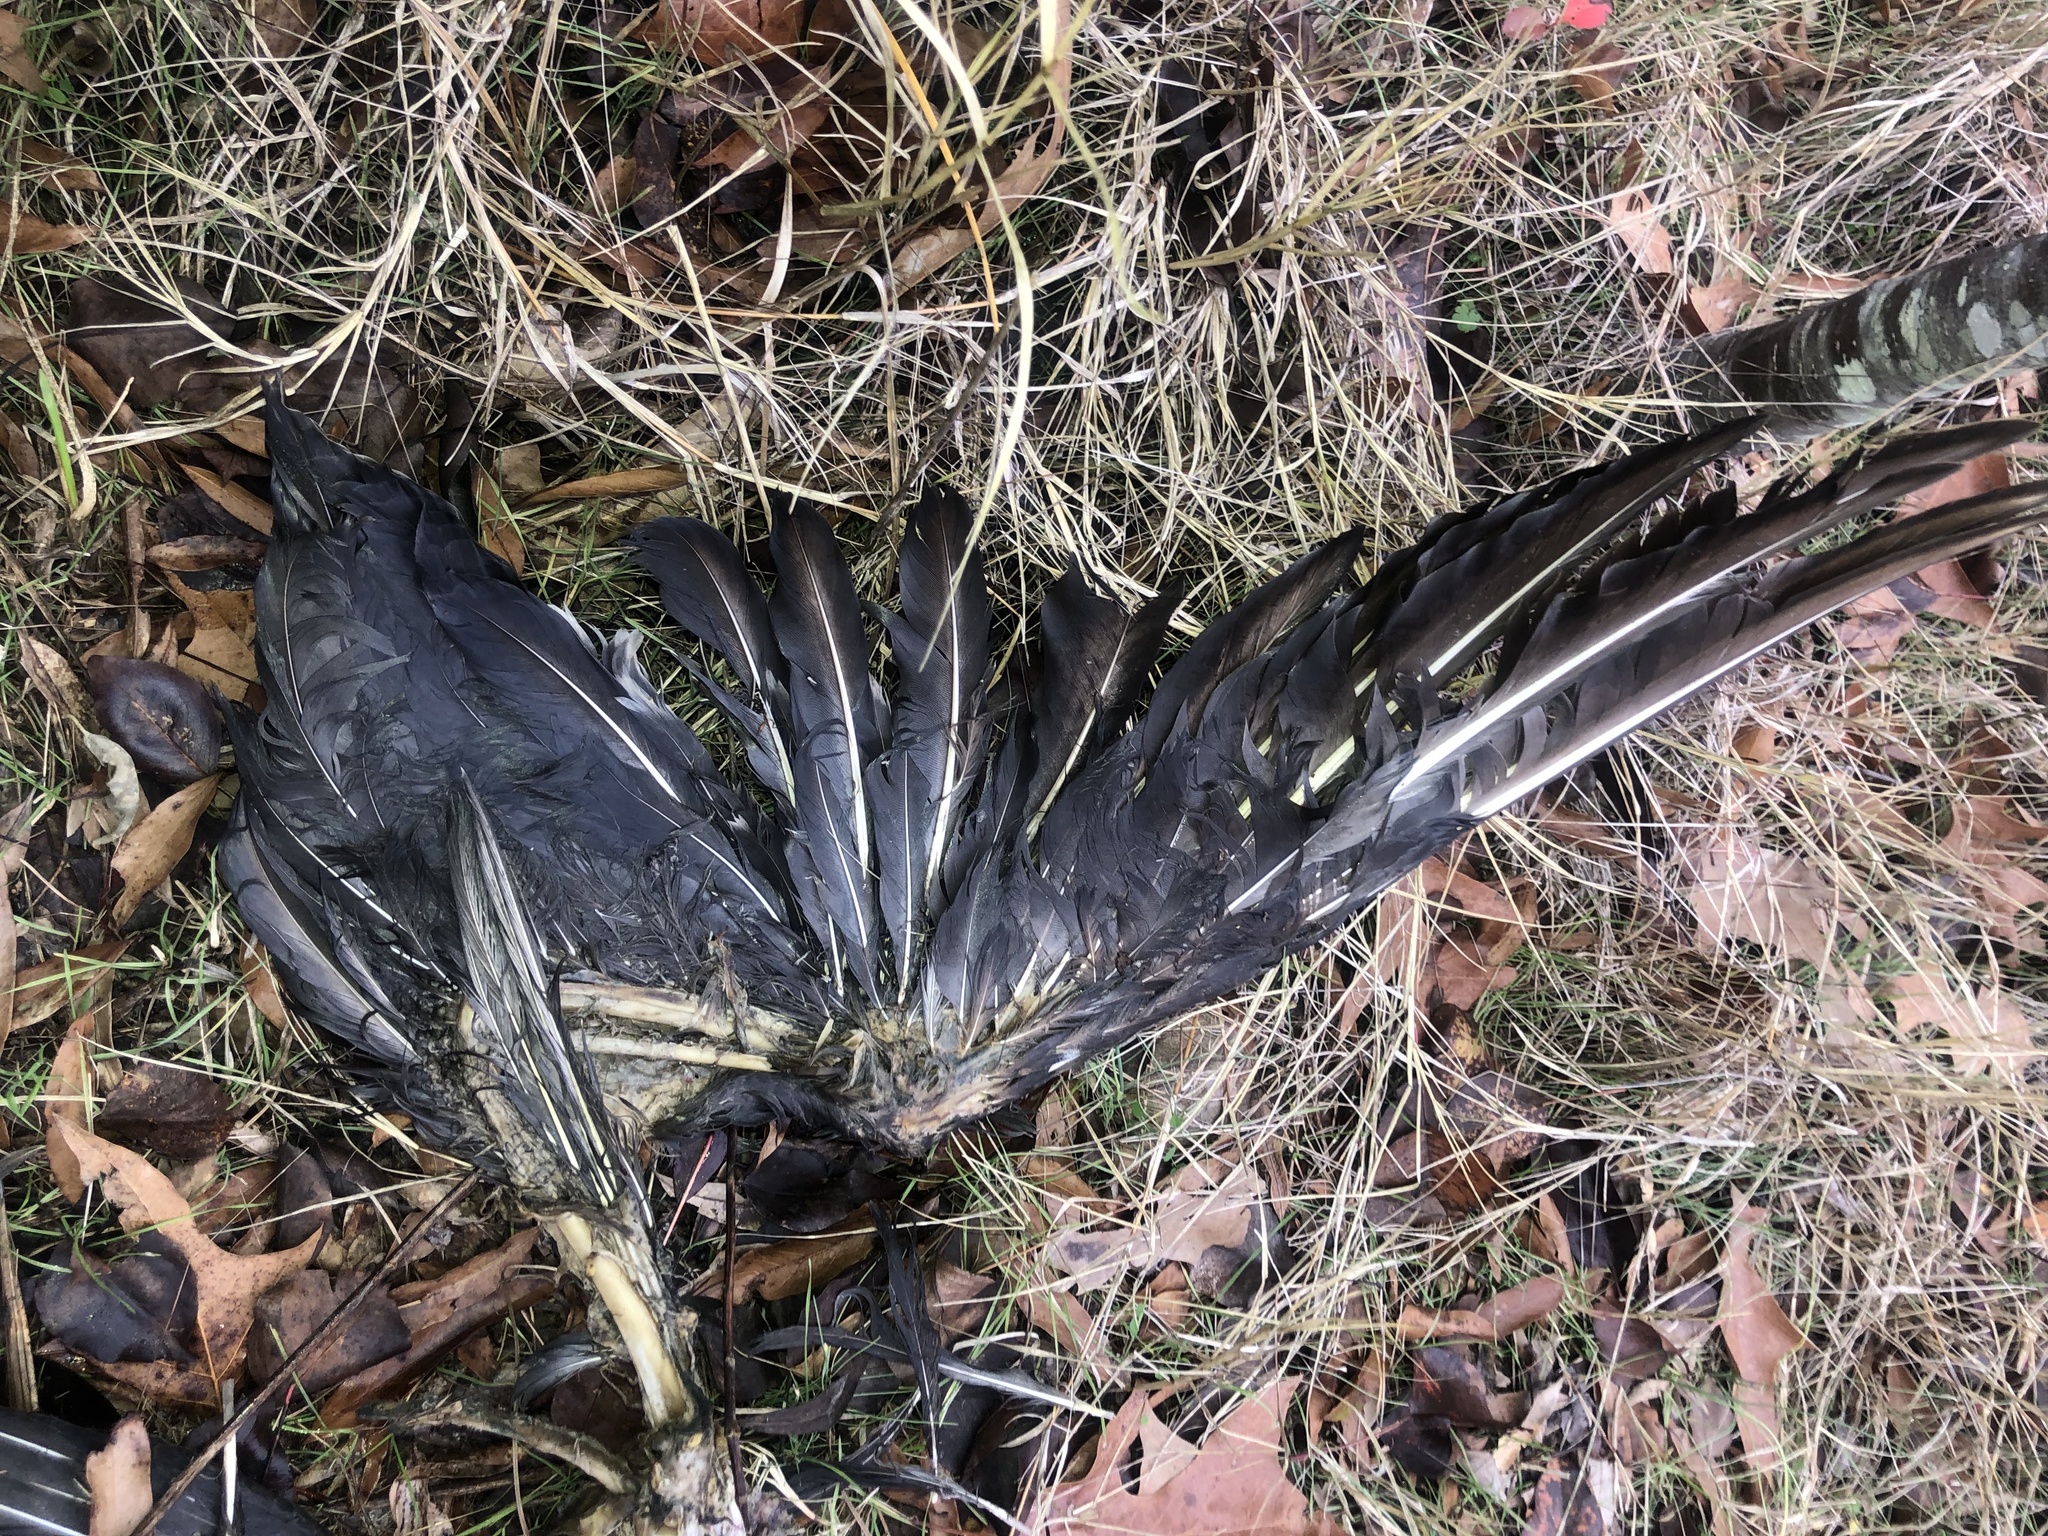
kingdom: Animalia
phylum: Chordata
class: Aves
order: Passeriformes
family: Corvidae
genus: Corvus
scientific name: Corvus brachyrhynchos
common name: American crow
